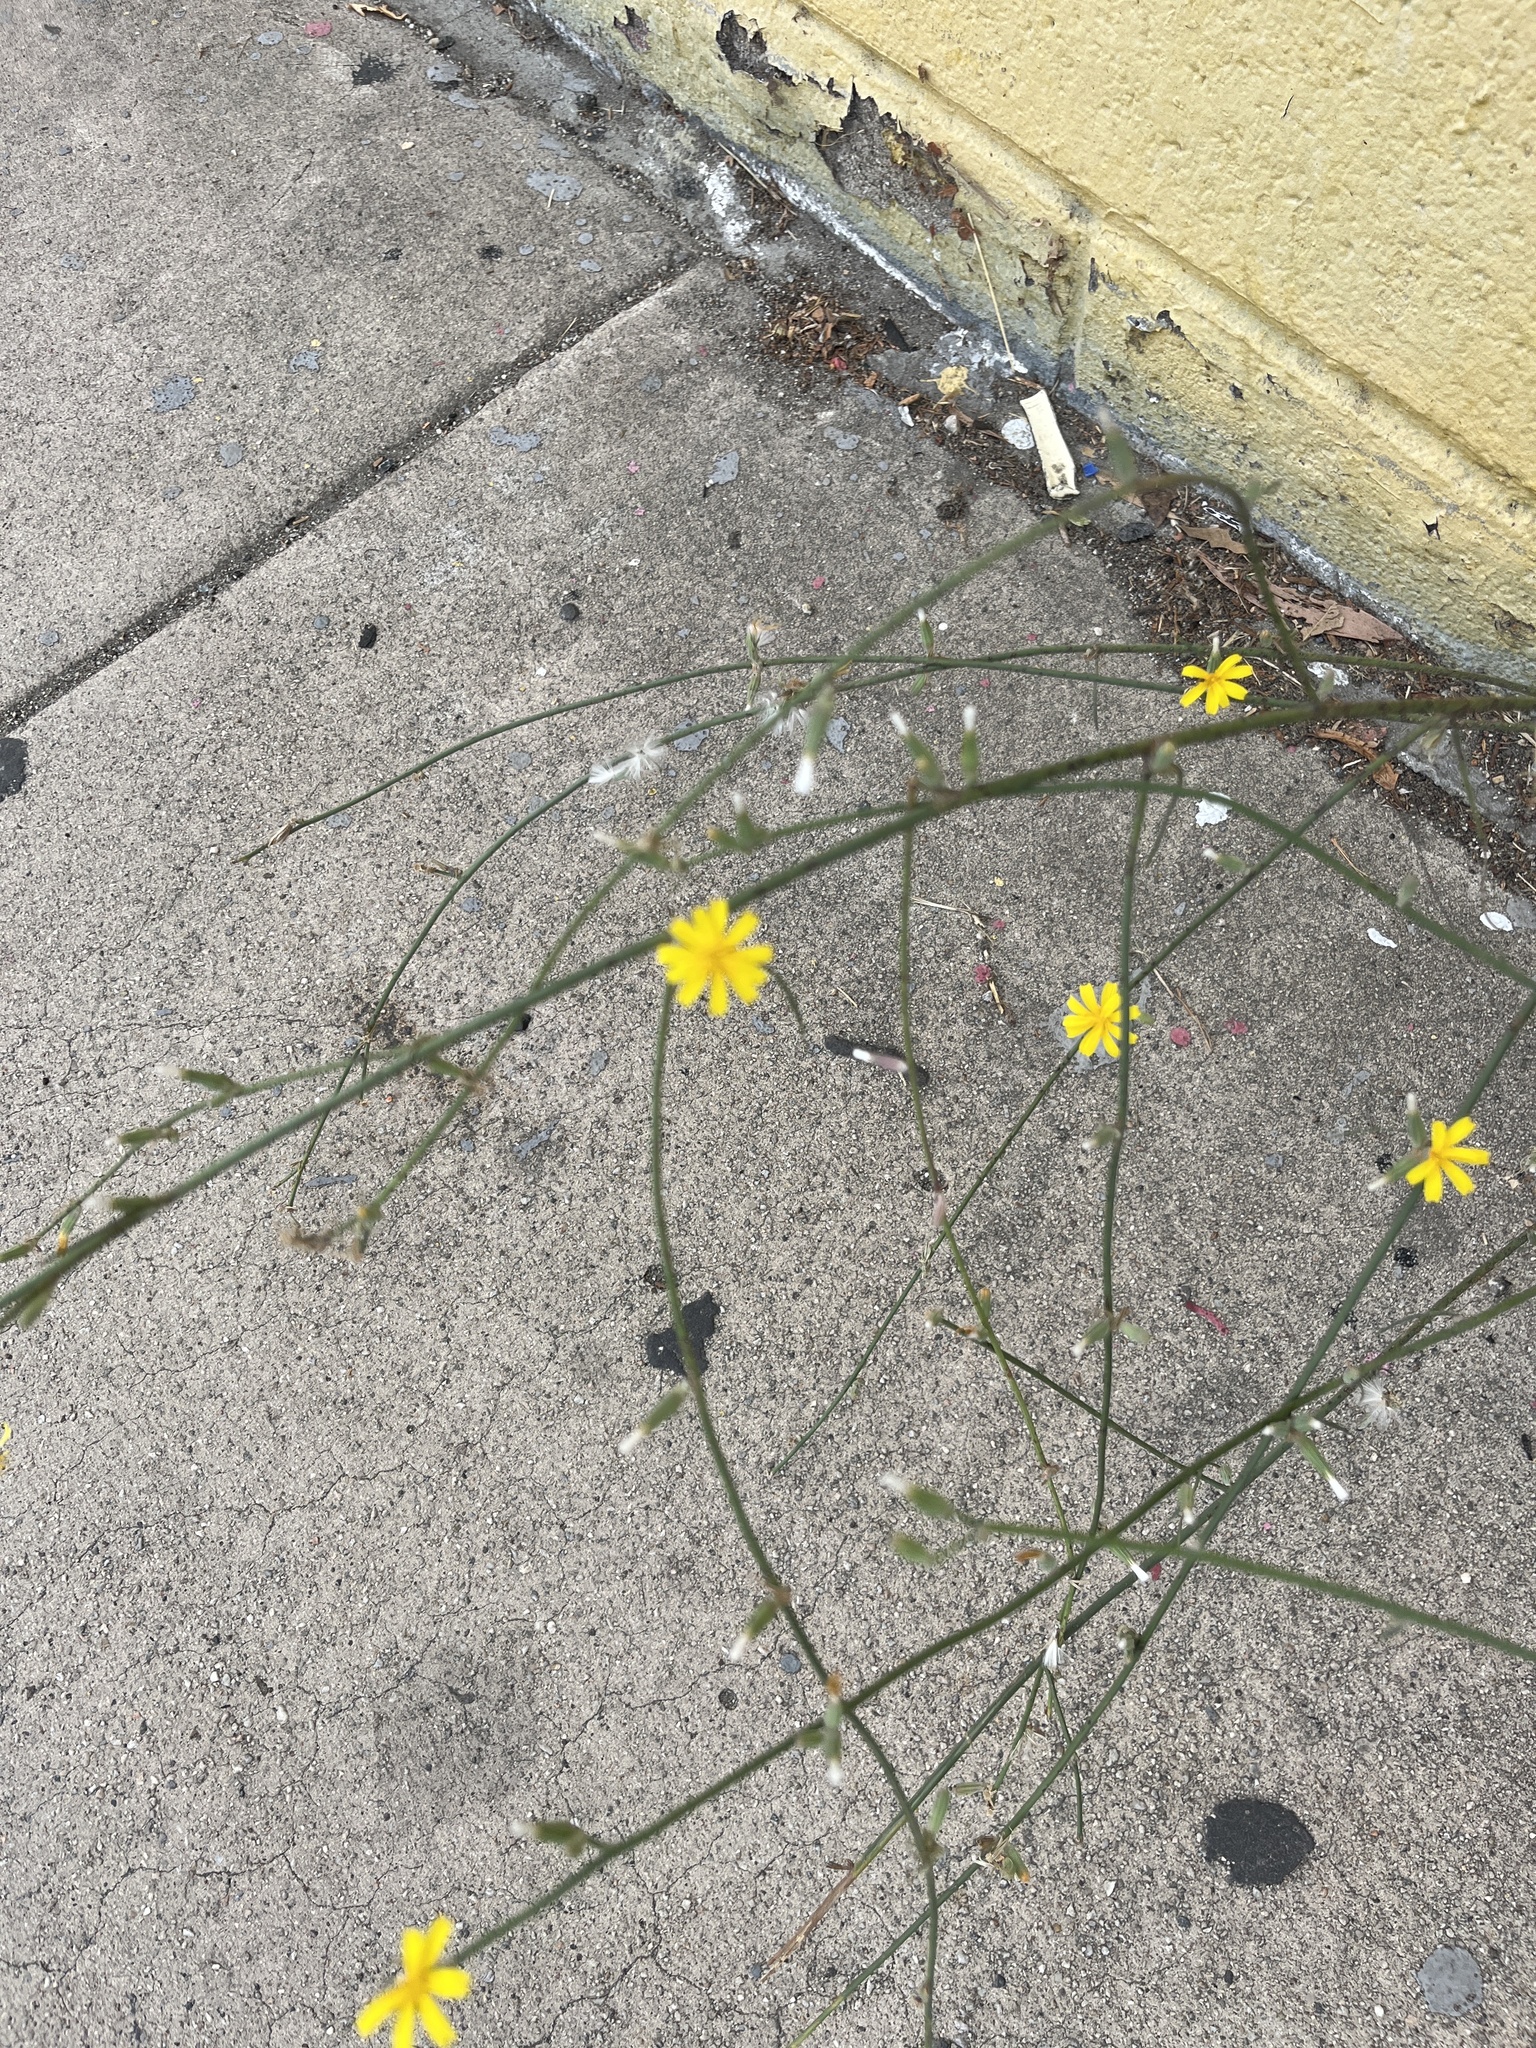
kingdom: Plantae
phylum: Tracheophyta
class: Magnoliopsida
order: Asterales
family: Asteraceae
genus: Chondrilla
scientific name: Chondrilla juncea
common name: Skeleton weed
